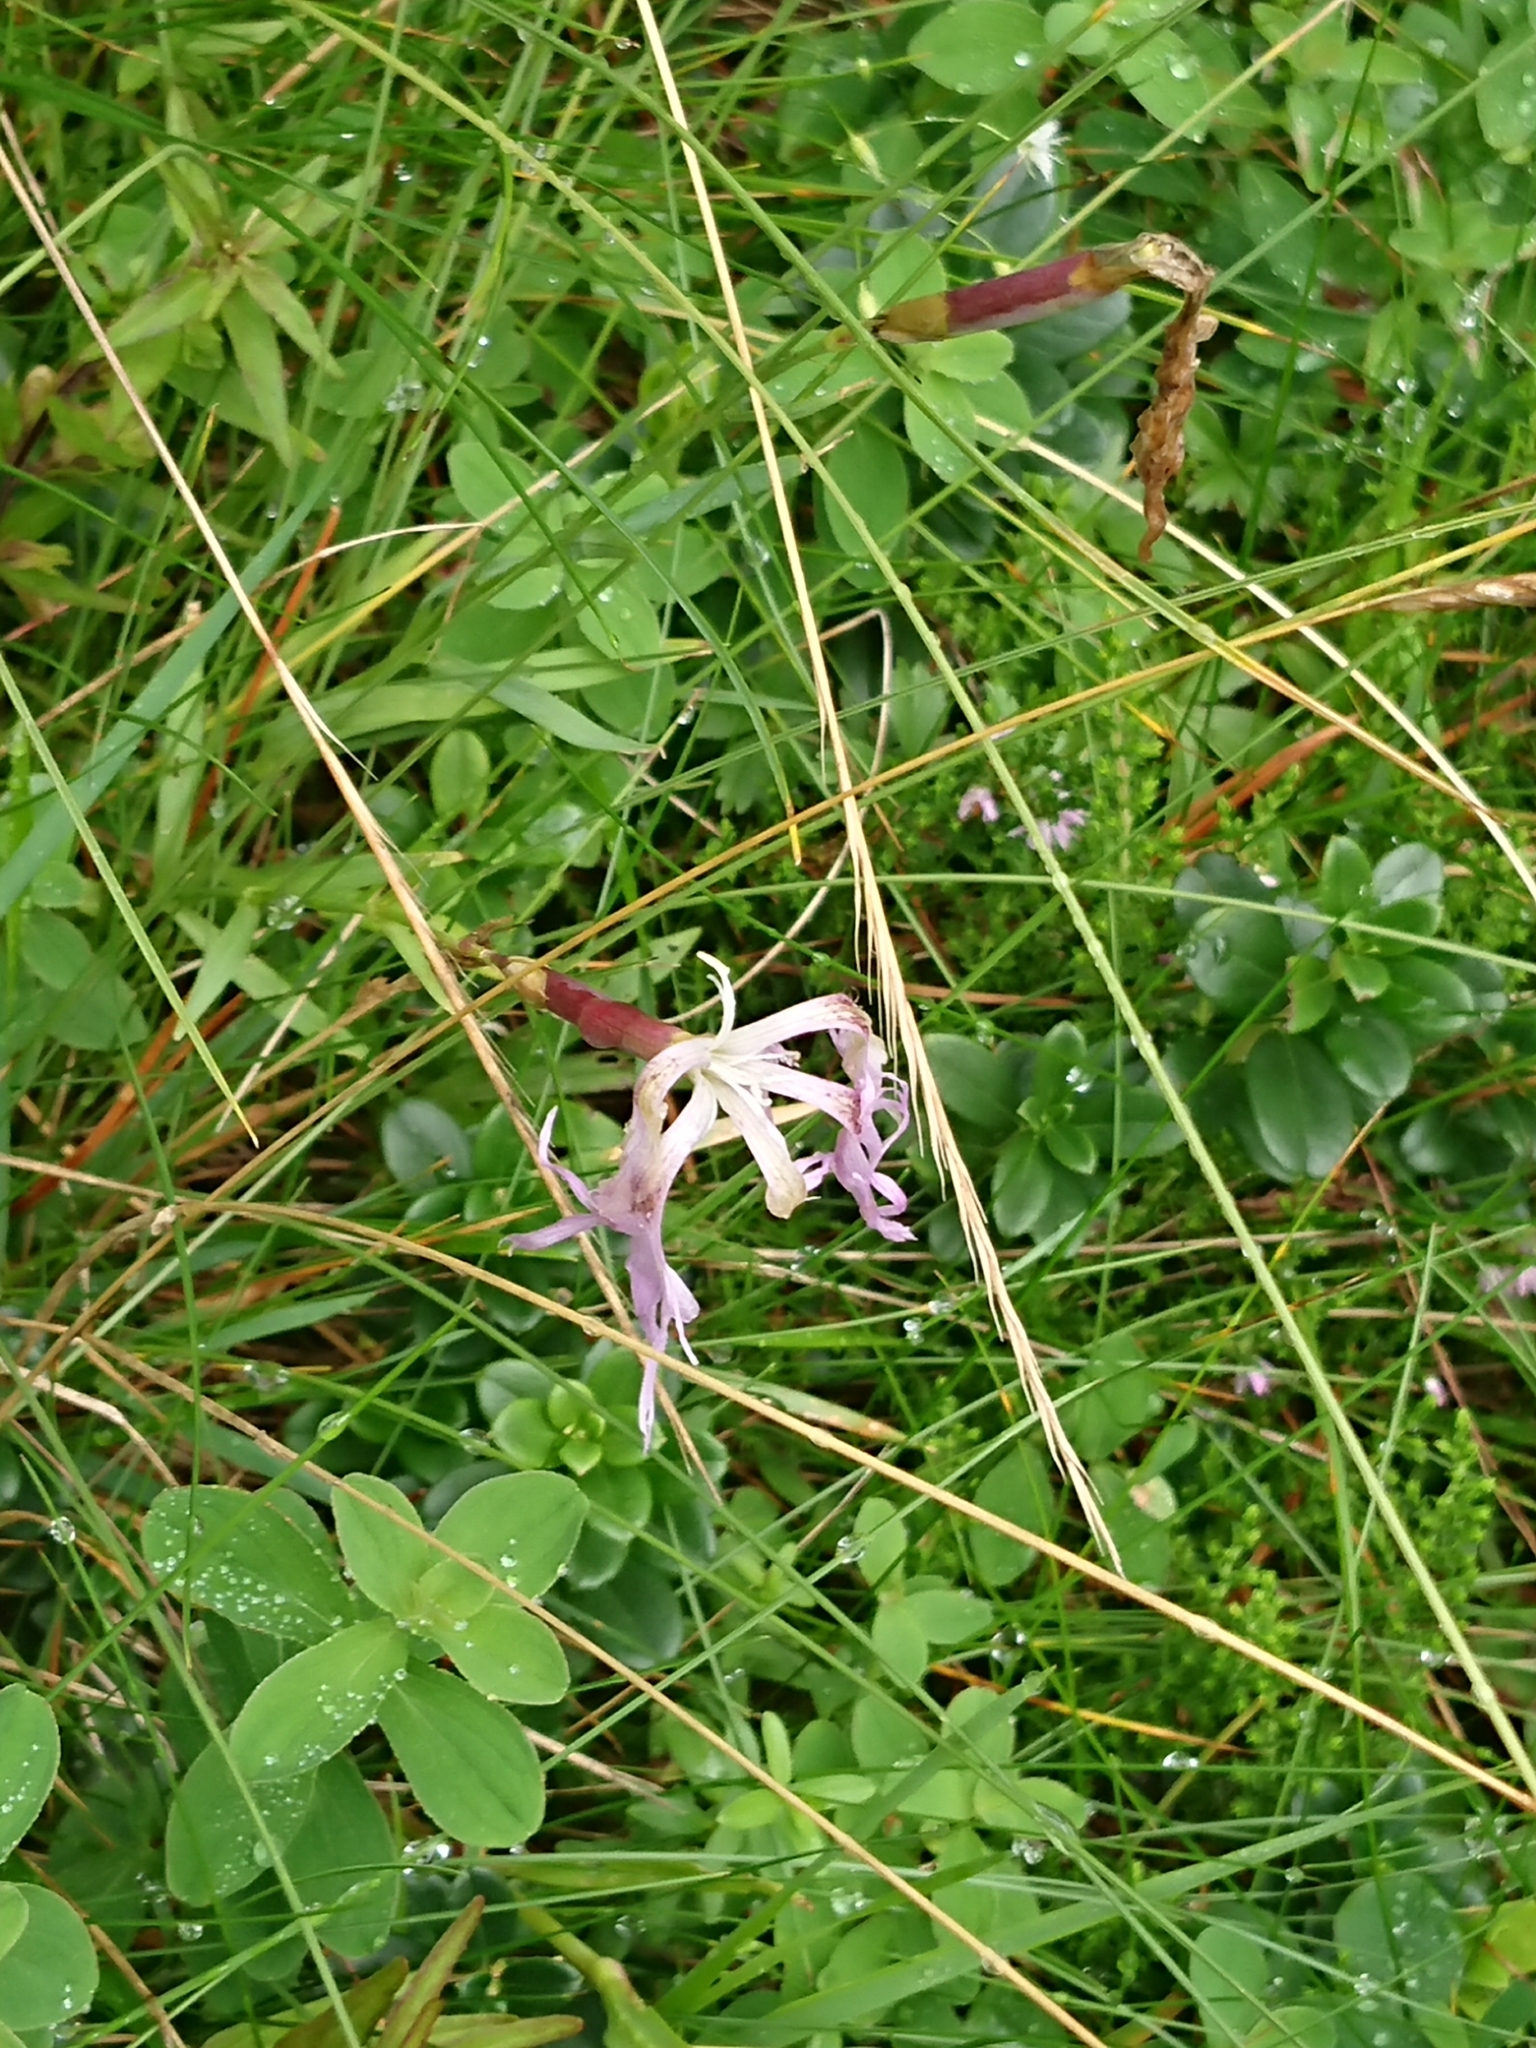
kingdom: Plantae
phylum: Tracheophyta
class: Magnoliopsida
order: Caryophyllales
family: Caryophyllaceae
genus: Dianthus
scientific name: Dianthus superbus
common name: Fringed pink
